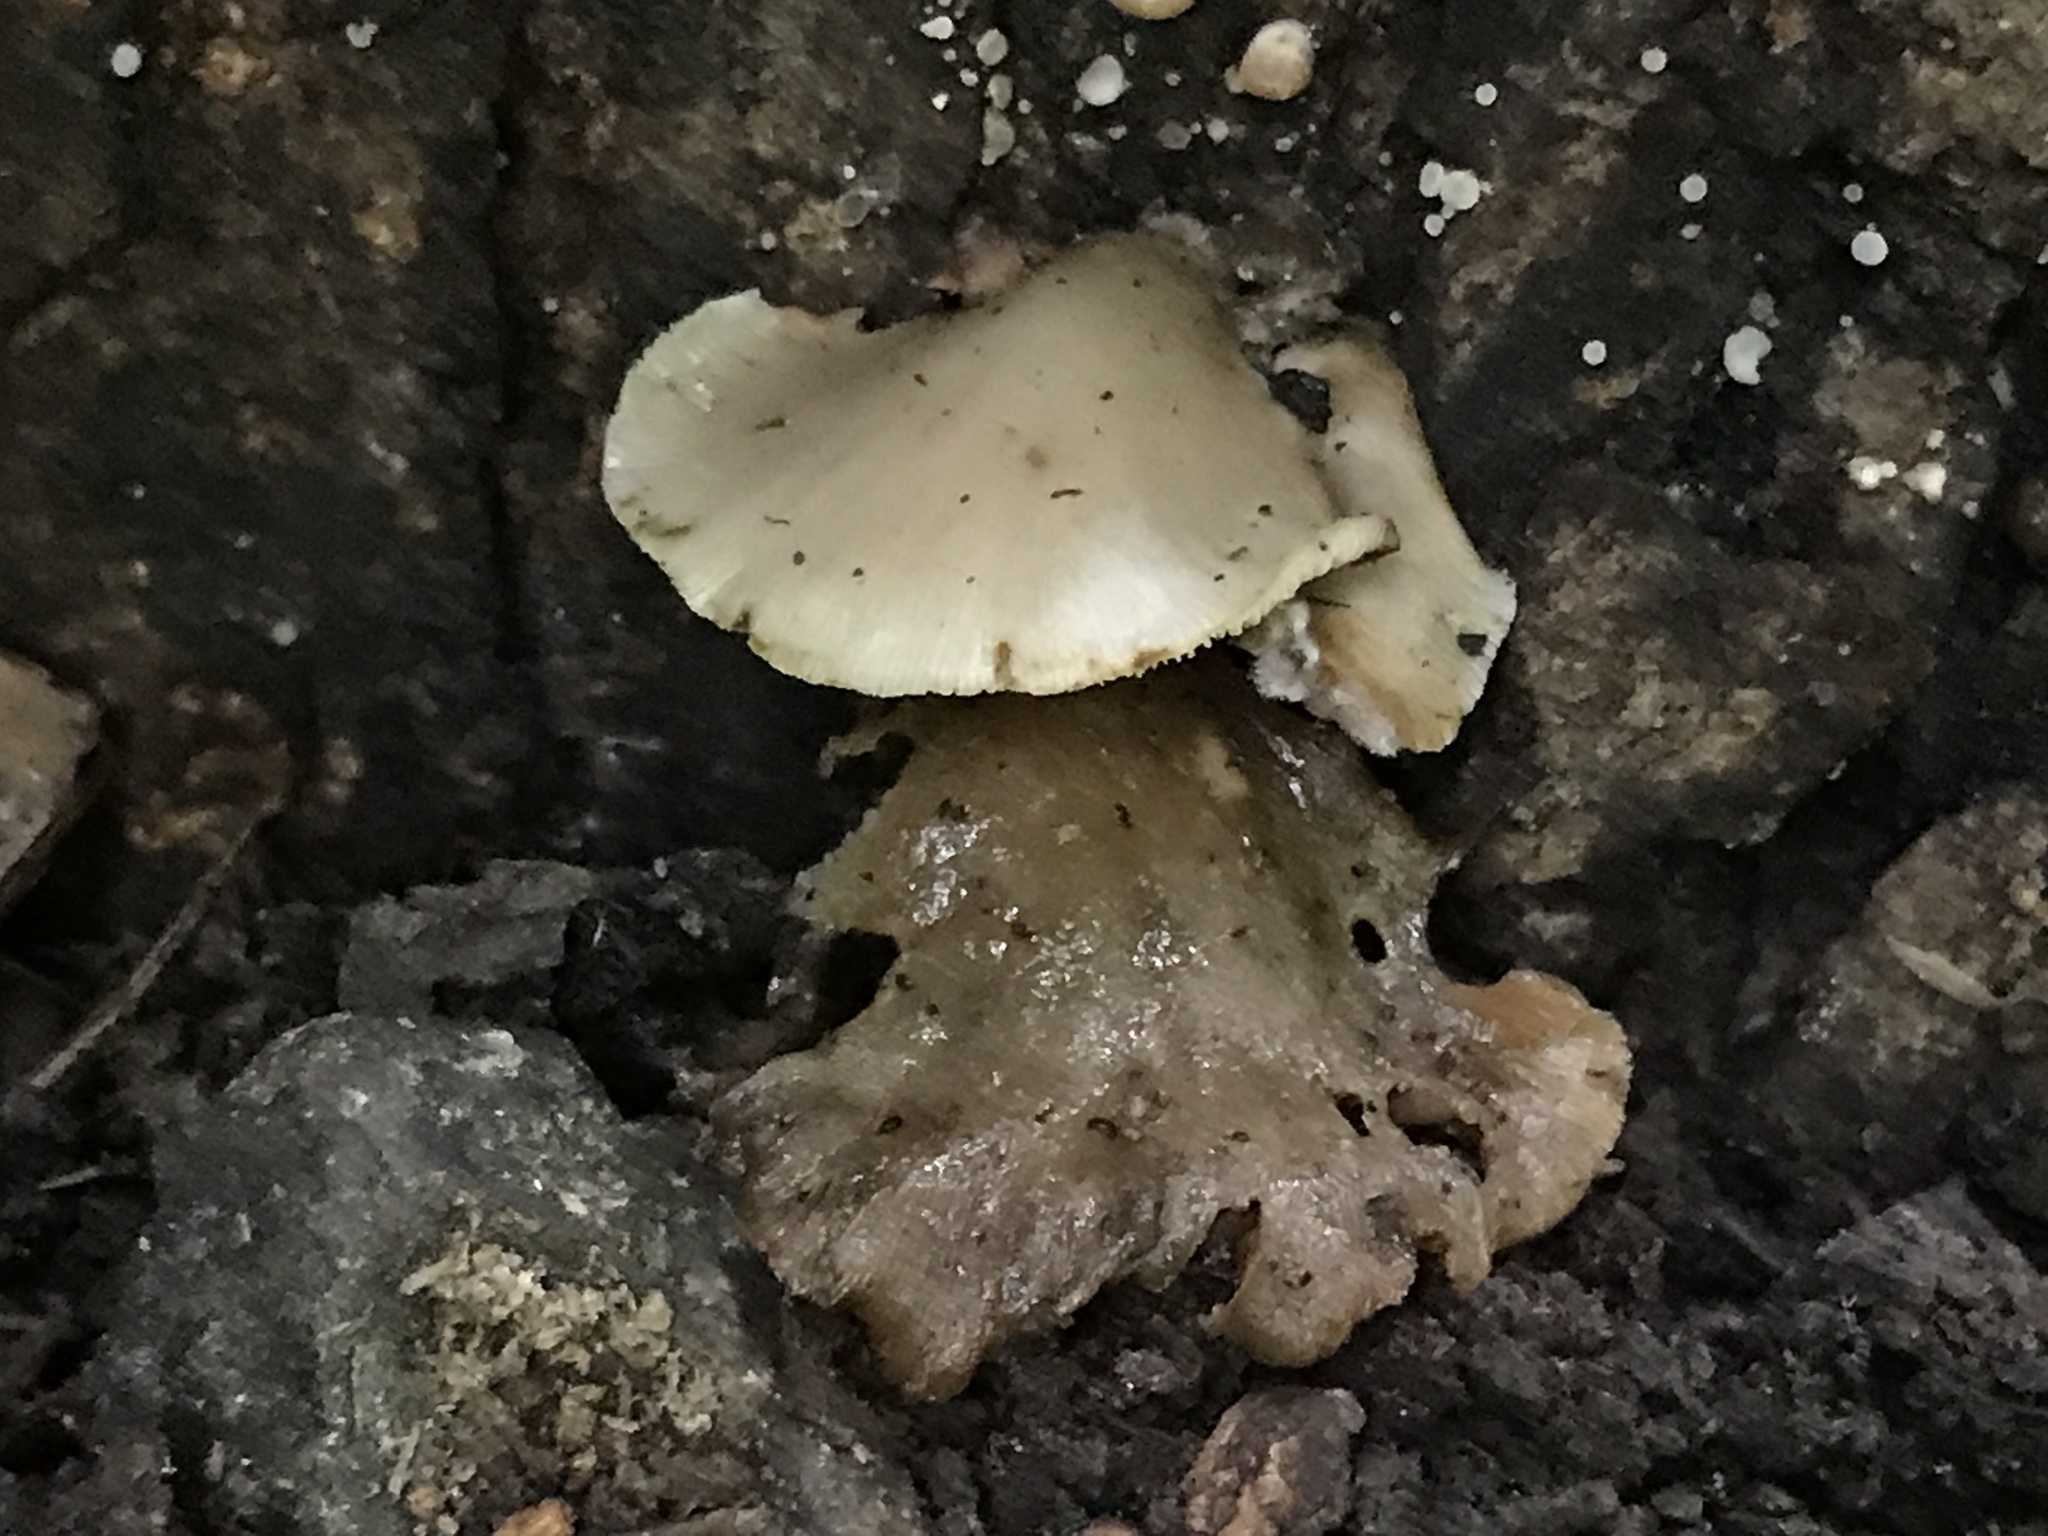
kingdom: Fungi
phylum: Basidiomycota
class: Agaricomycetes
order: Agaricales
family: Crepidotaceae
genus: Crepidotus
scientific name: Crepidotus applanatus
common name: Flat crep
